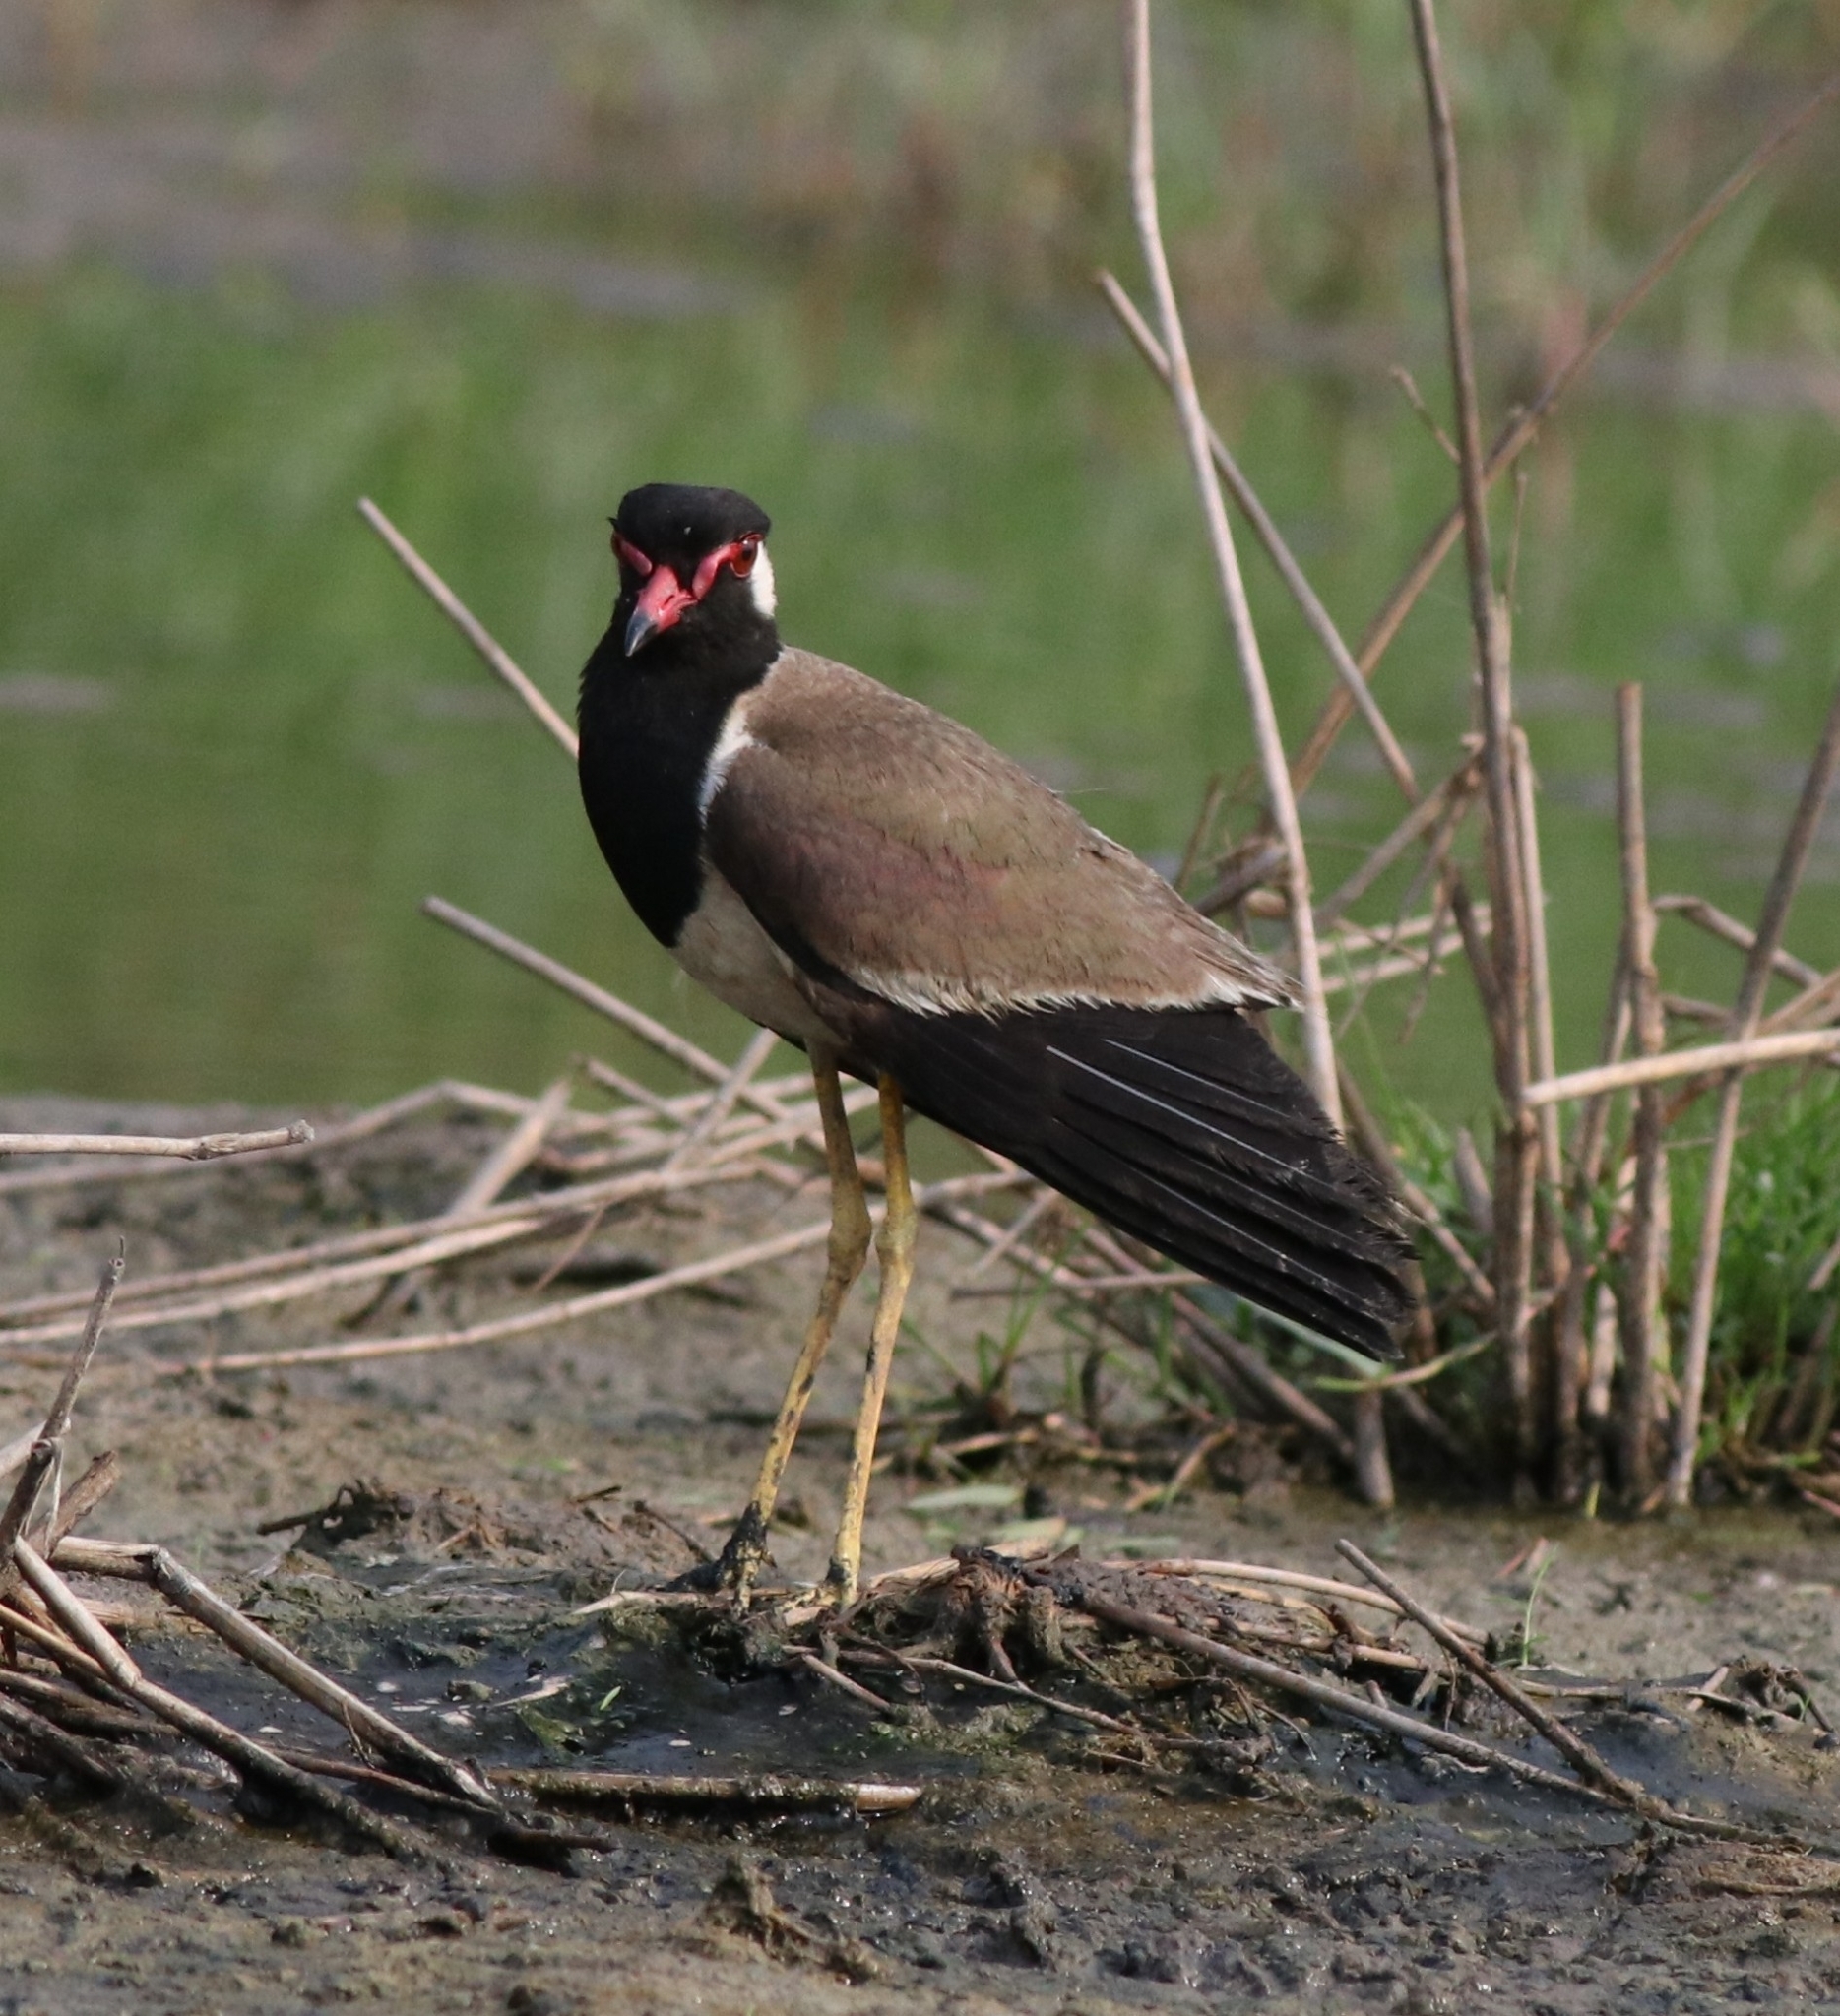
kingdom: Animalia
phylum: Chordata
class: Aves
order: Charadriiformes
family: Charadriidae
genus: Vanellus
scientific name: Vanellus indicus
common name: Red-wattled lapwing
